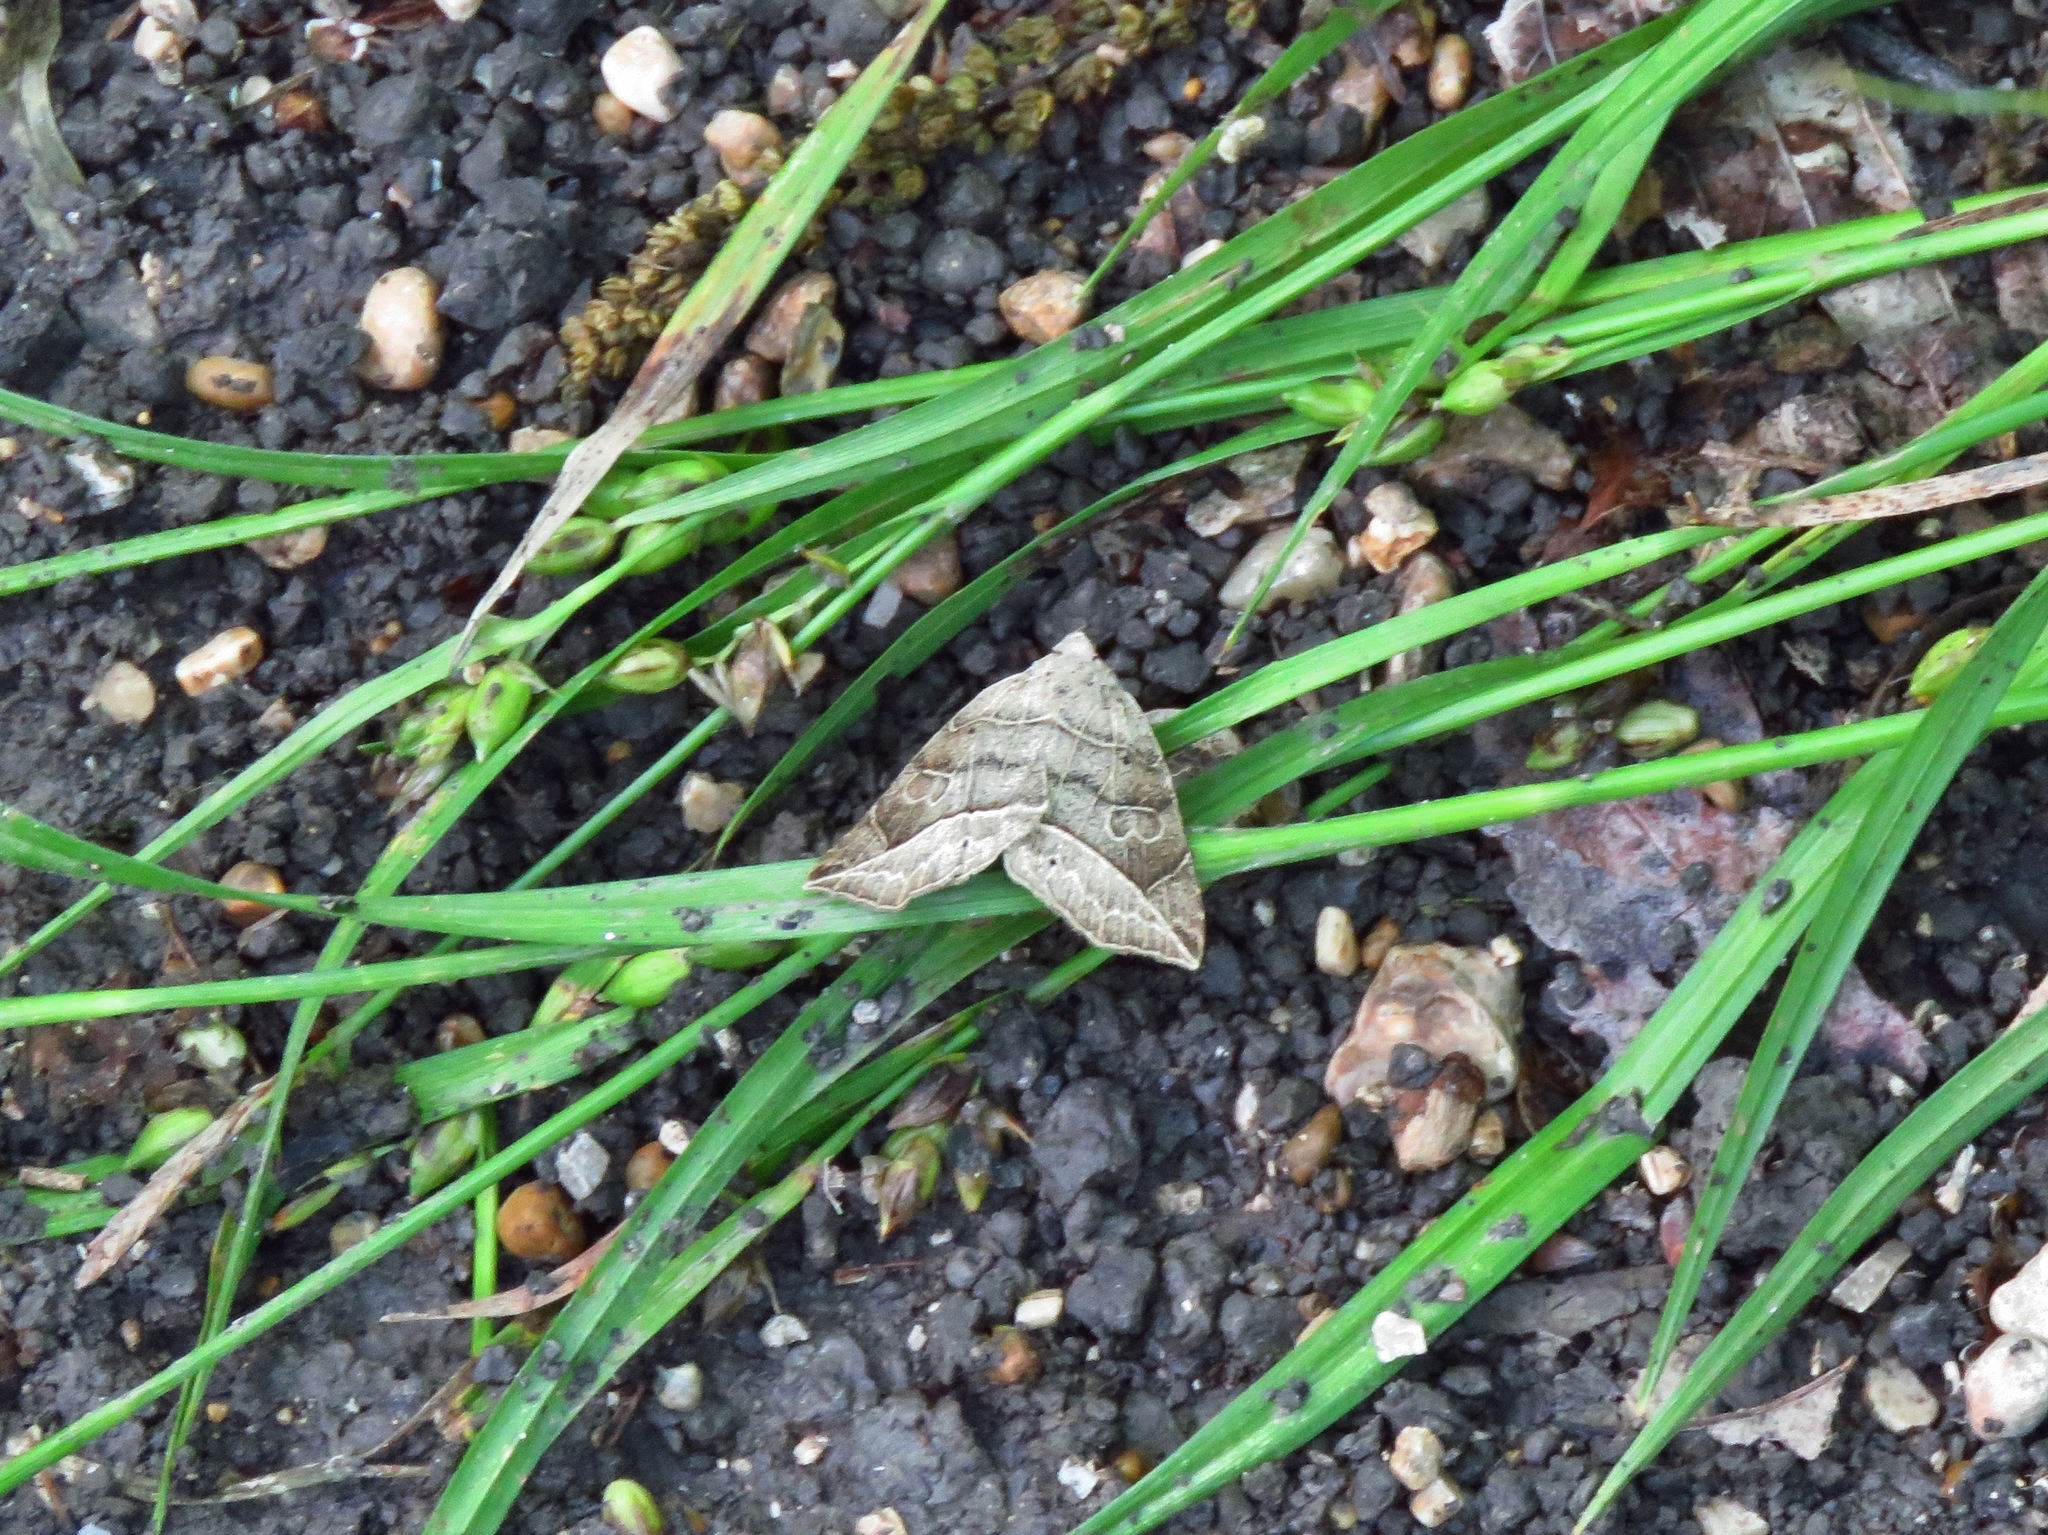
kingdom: Animalia
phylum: Arthropoda
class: Insecta
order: Lepidoptera
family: Erebidae
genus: Isogona
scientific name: Isogona tenuis
